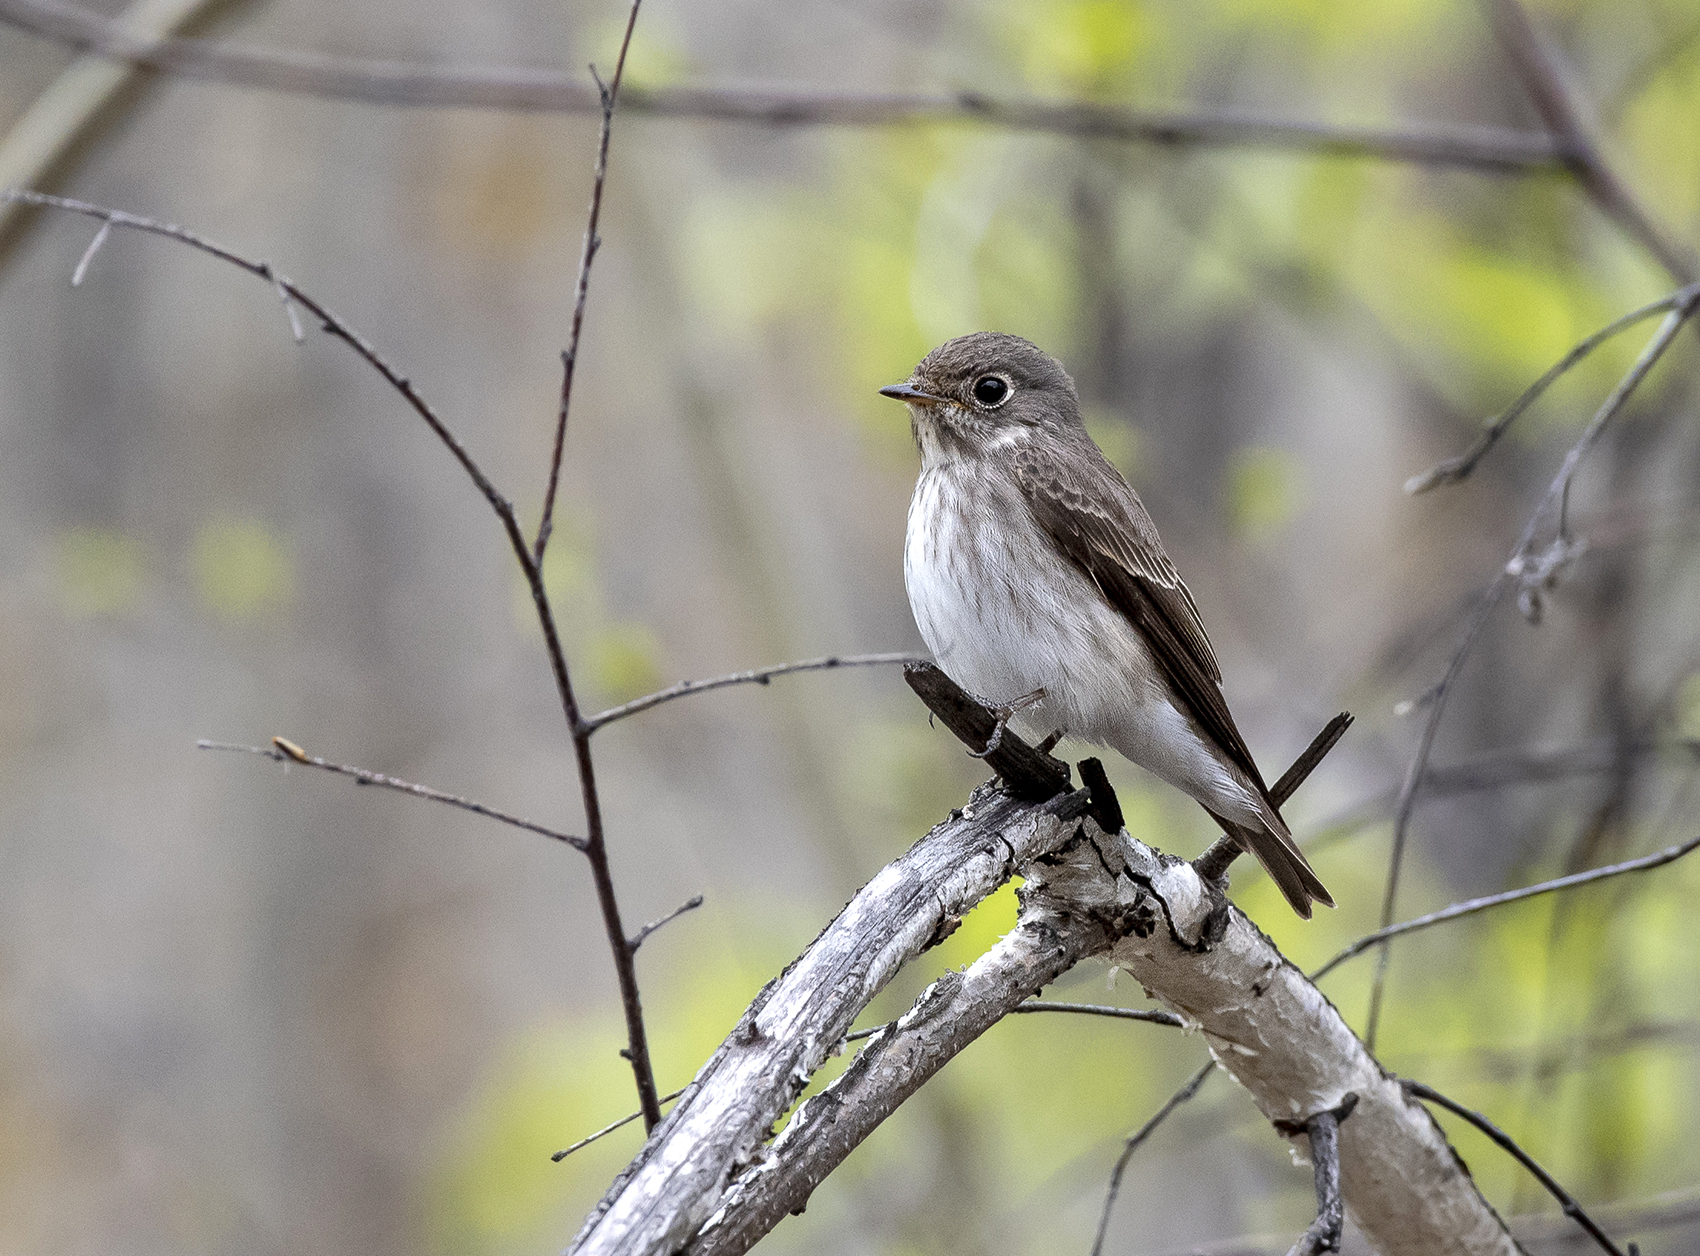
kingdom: Animalia
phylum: Chordata
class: Aves
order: Passeriformes
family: Muscicapidae
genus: Muscicapa
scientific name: Muscicapa sibirica
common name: Dark-sided flycatcher
